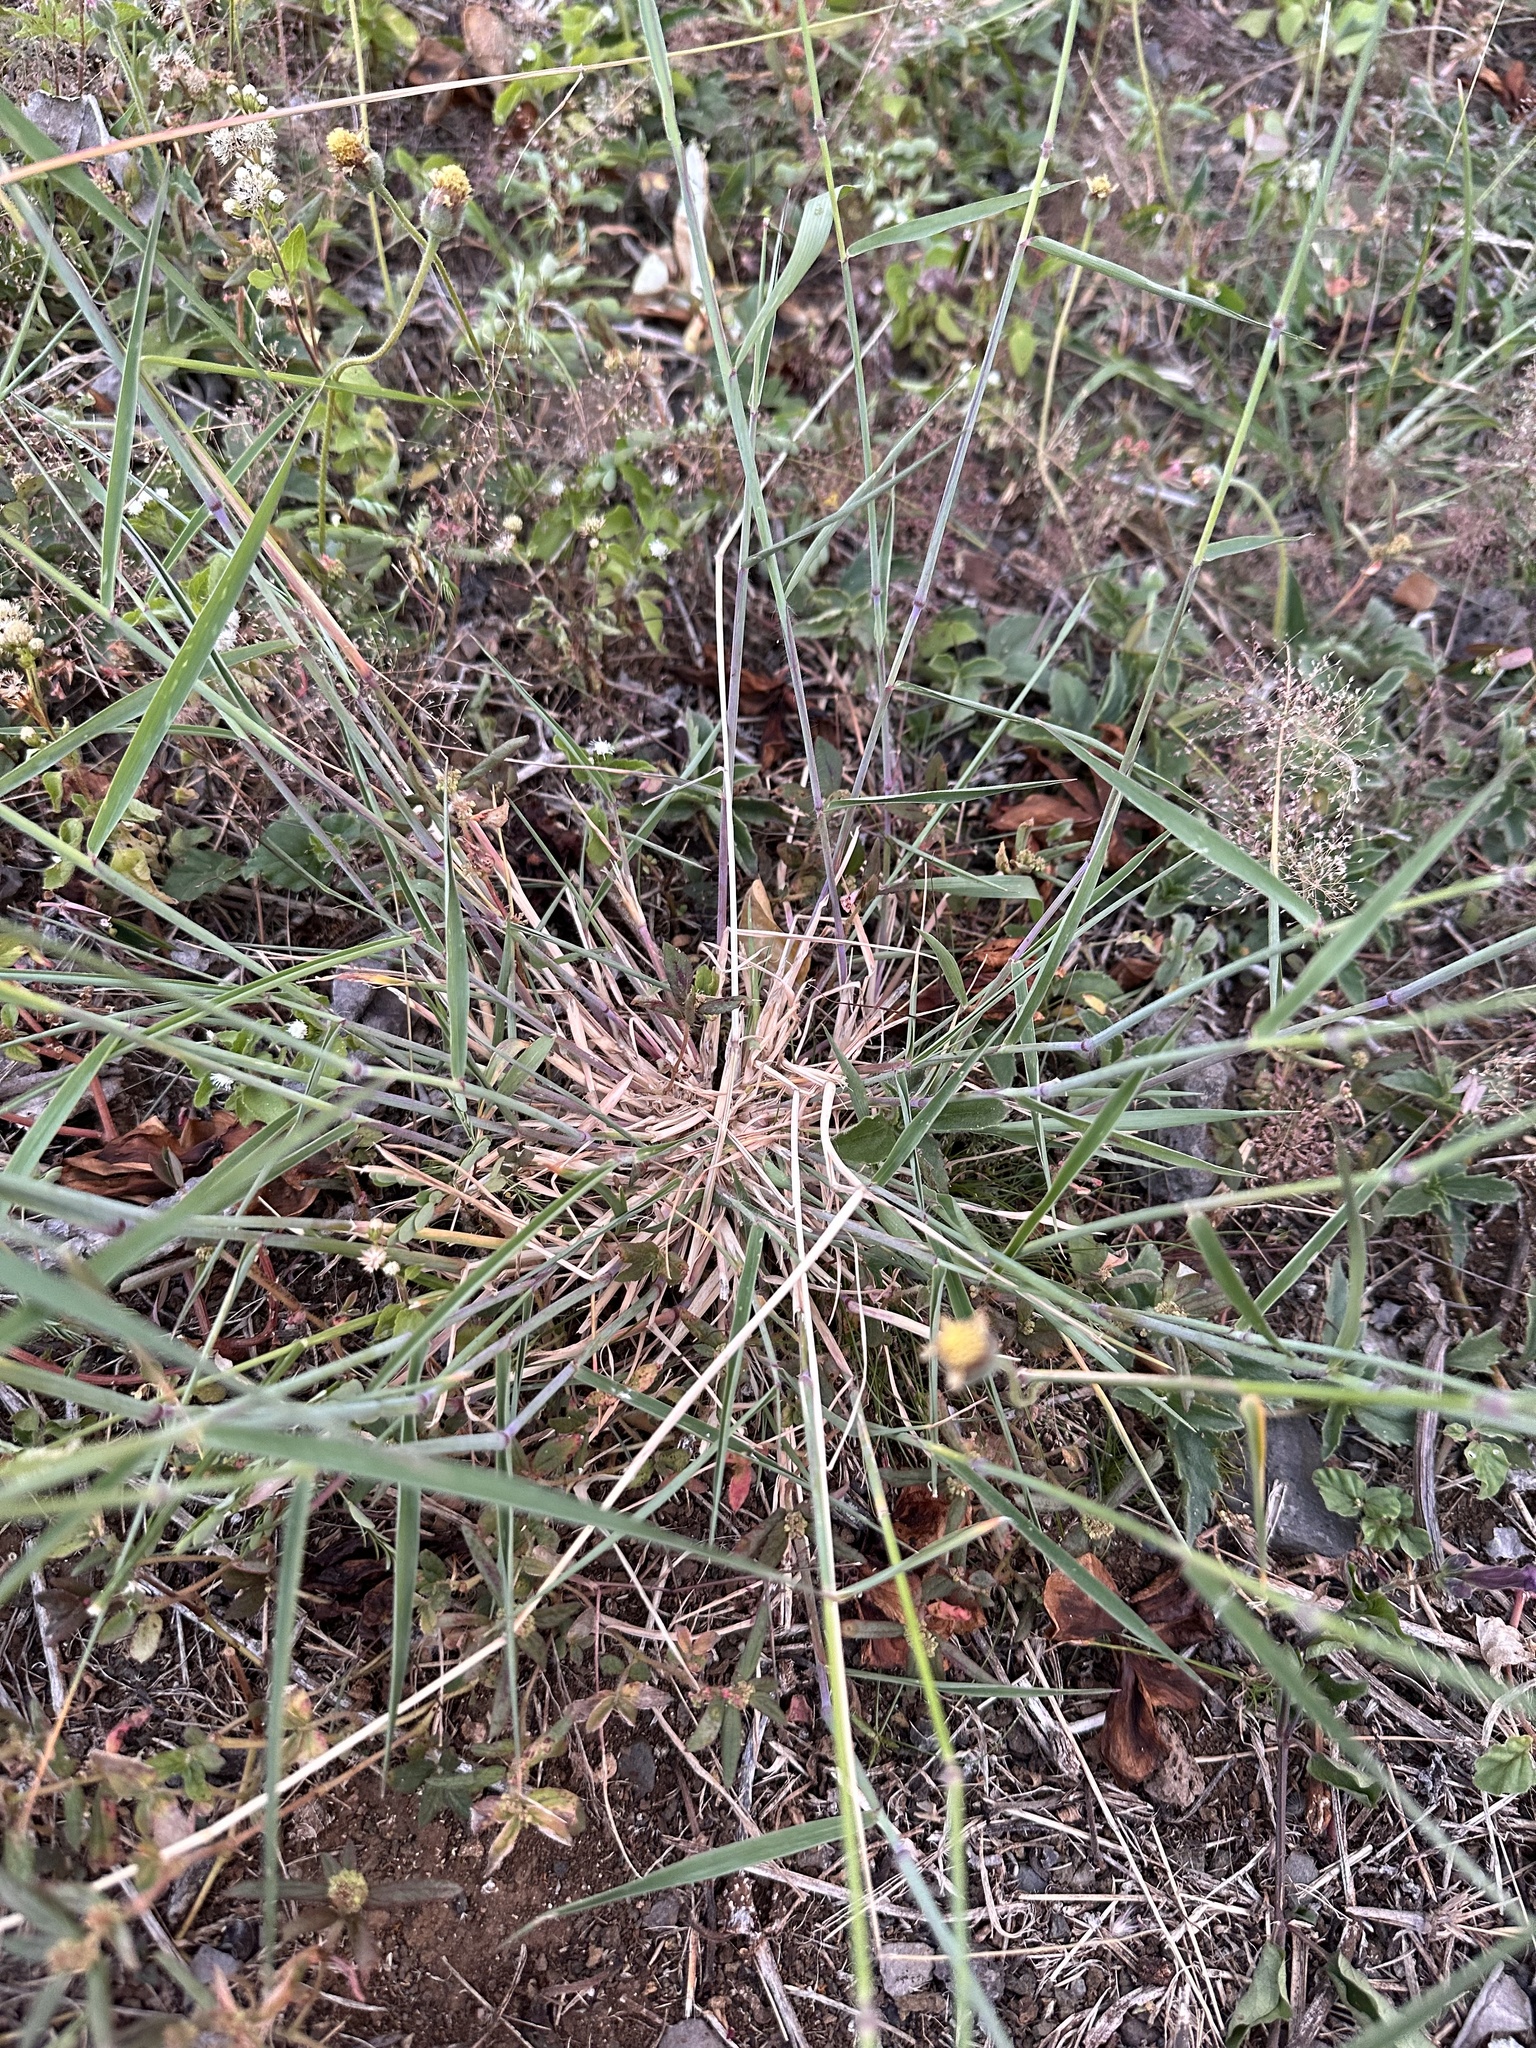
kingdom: Plantae
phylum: Tracheophyta
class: Liliopsida
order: Poales
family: Poaceae
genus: Melinis
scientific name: Melinis repens
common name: Rose natal grass
